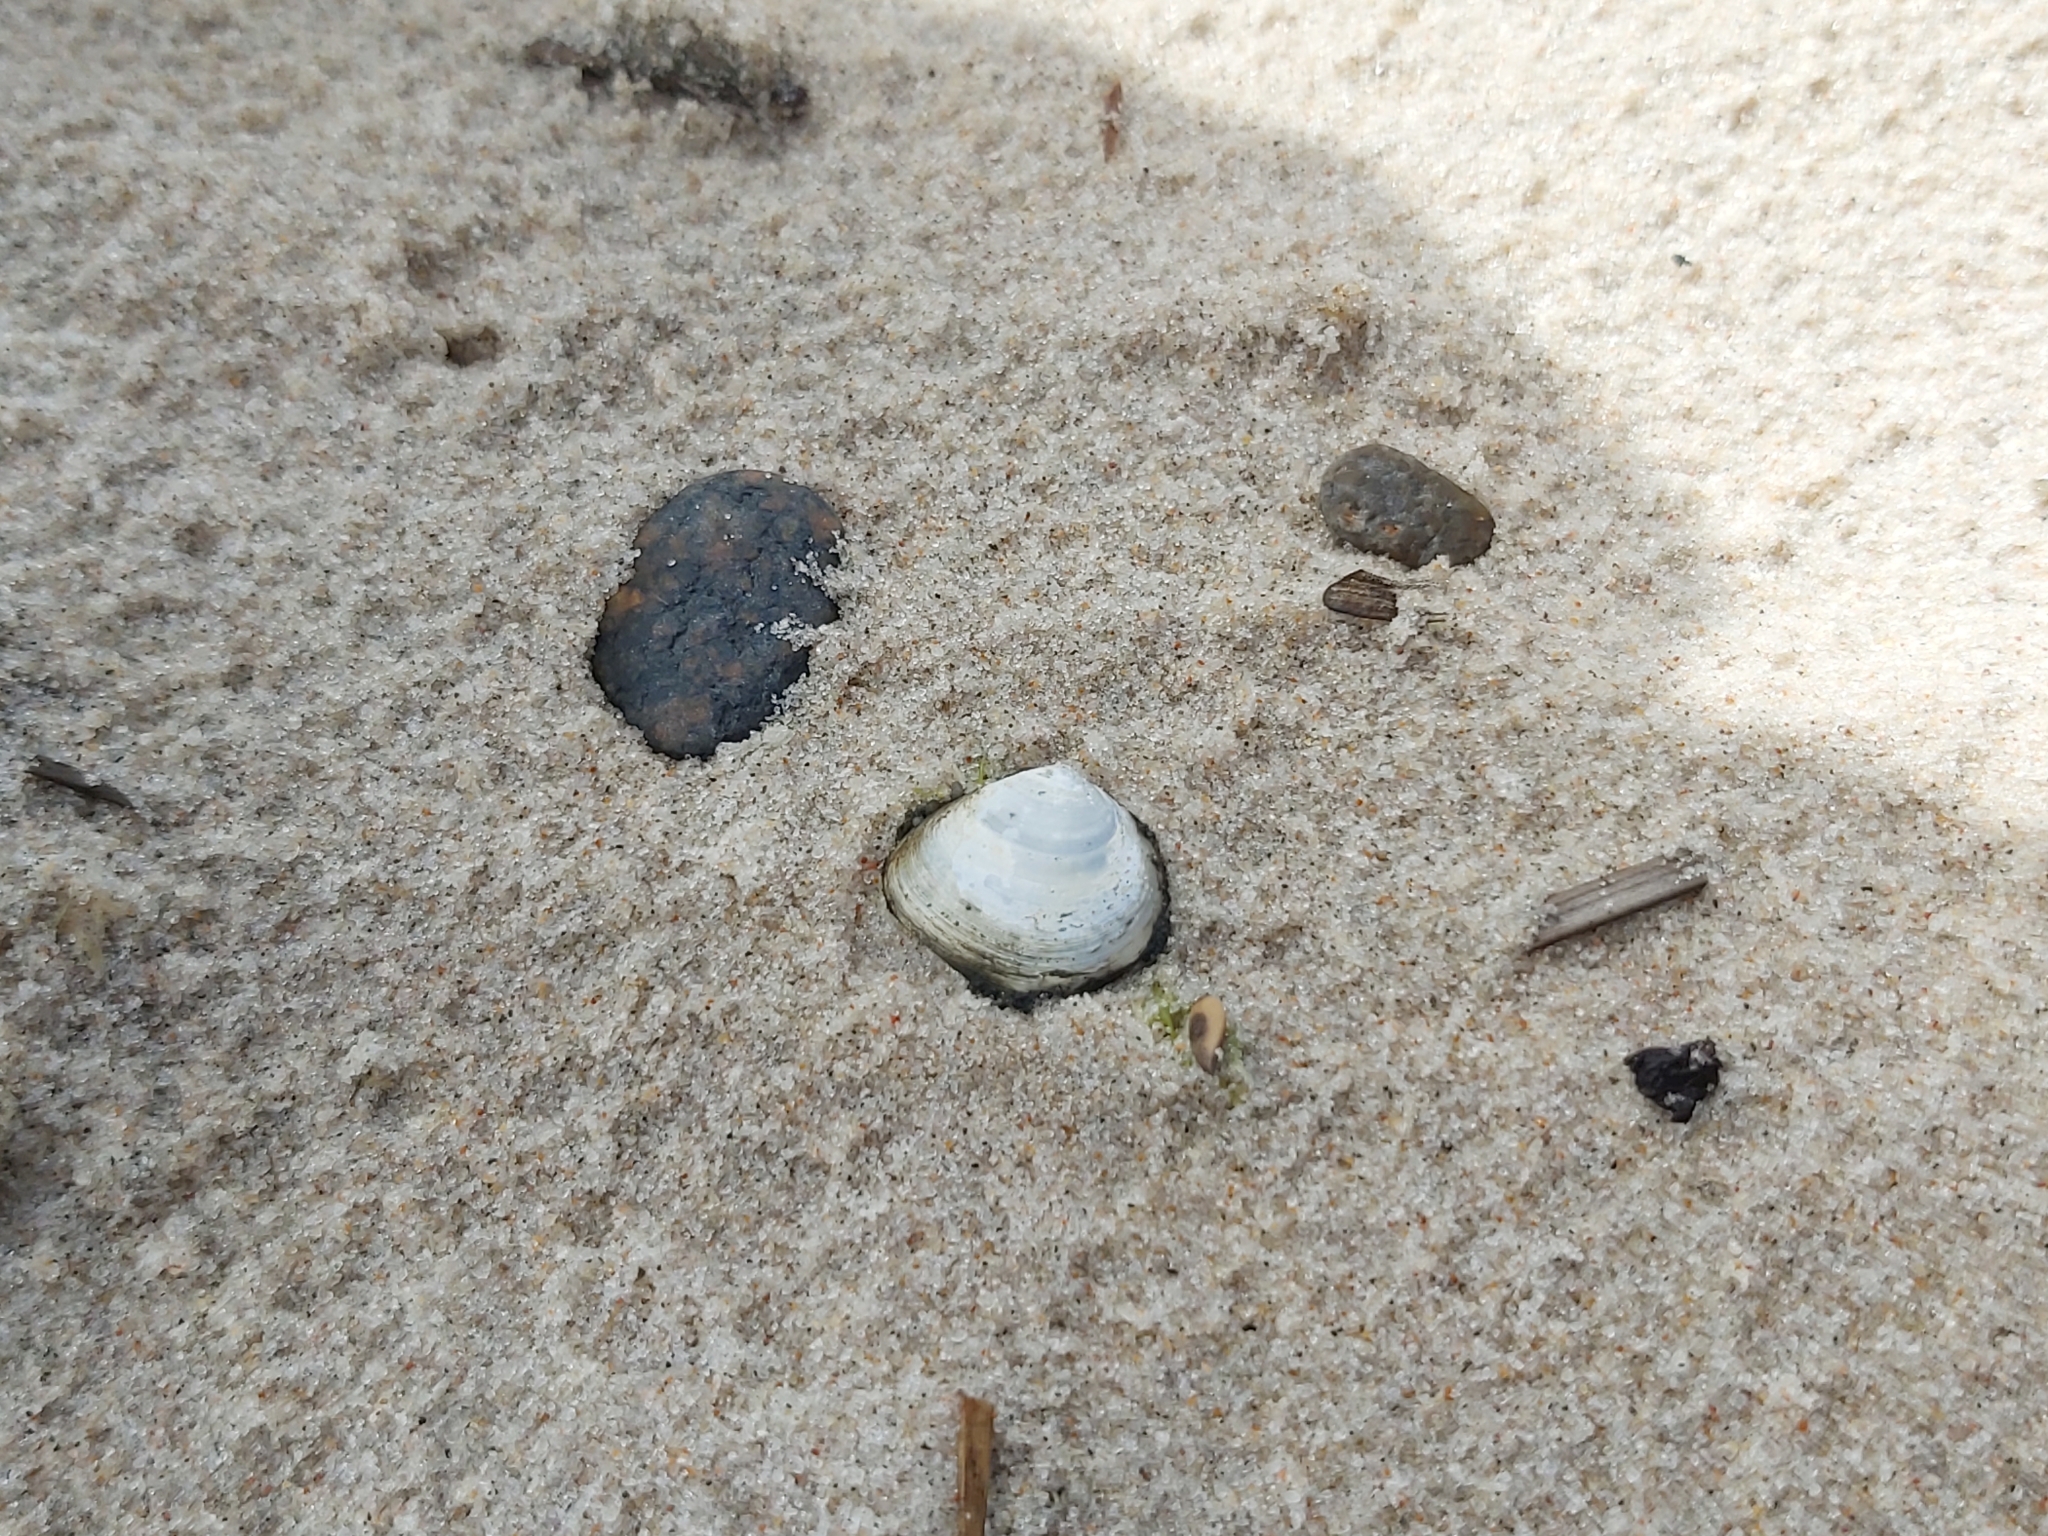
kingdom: Animalia
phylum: Mollusca
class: Bivalvia
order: Cardiida
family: Tellinidae
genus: Macoma
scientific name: Macoma balthica
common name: Baltic tellin
